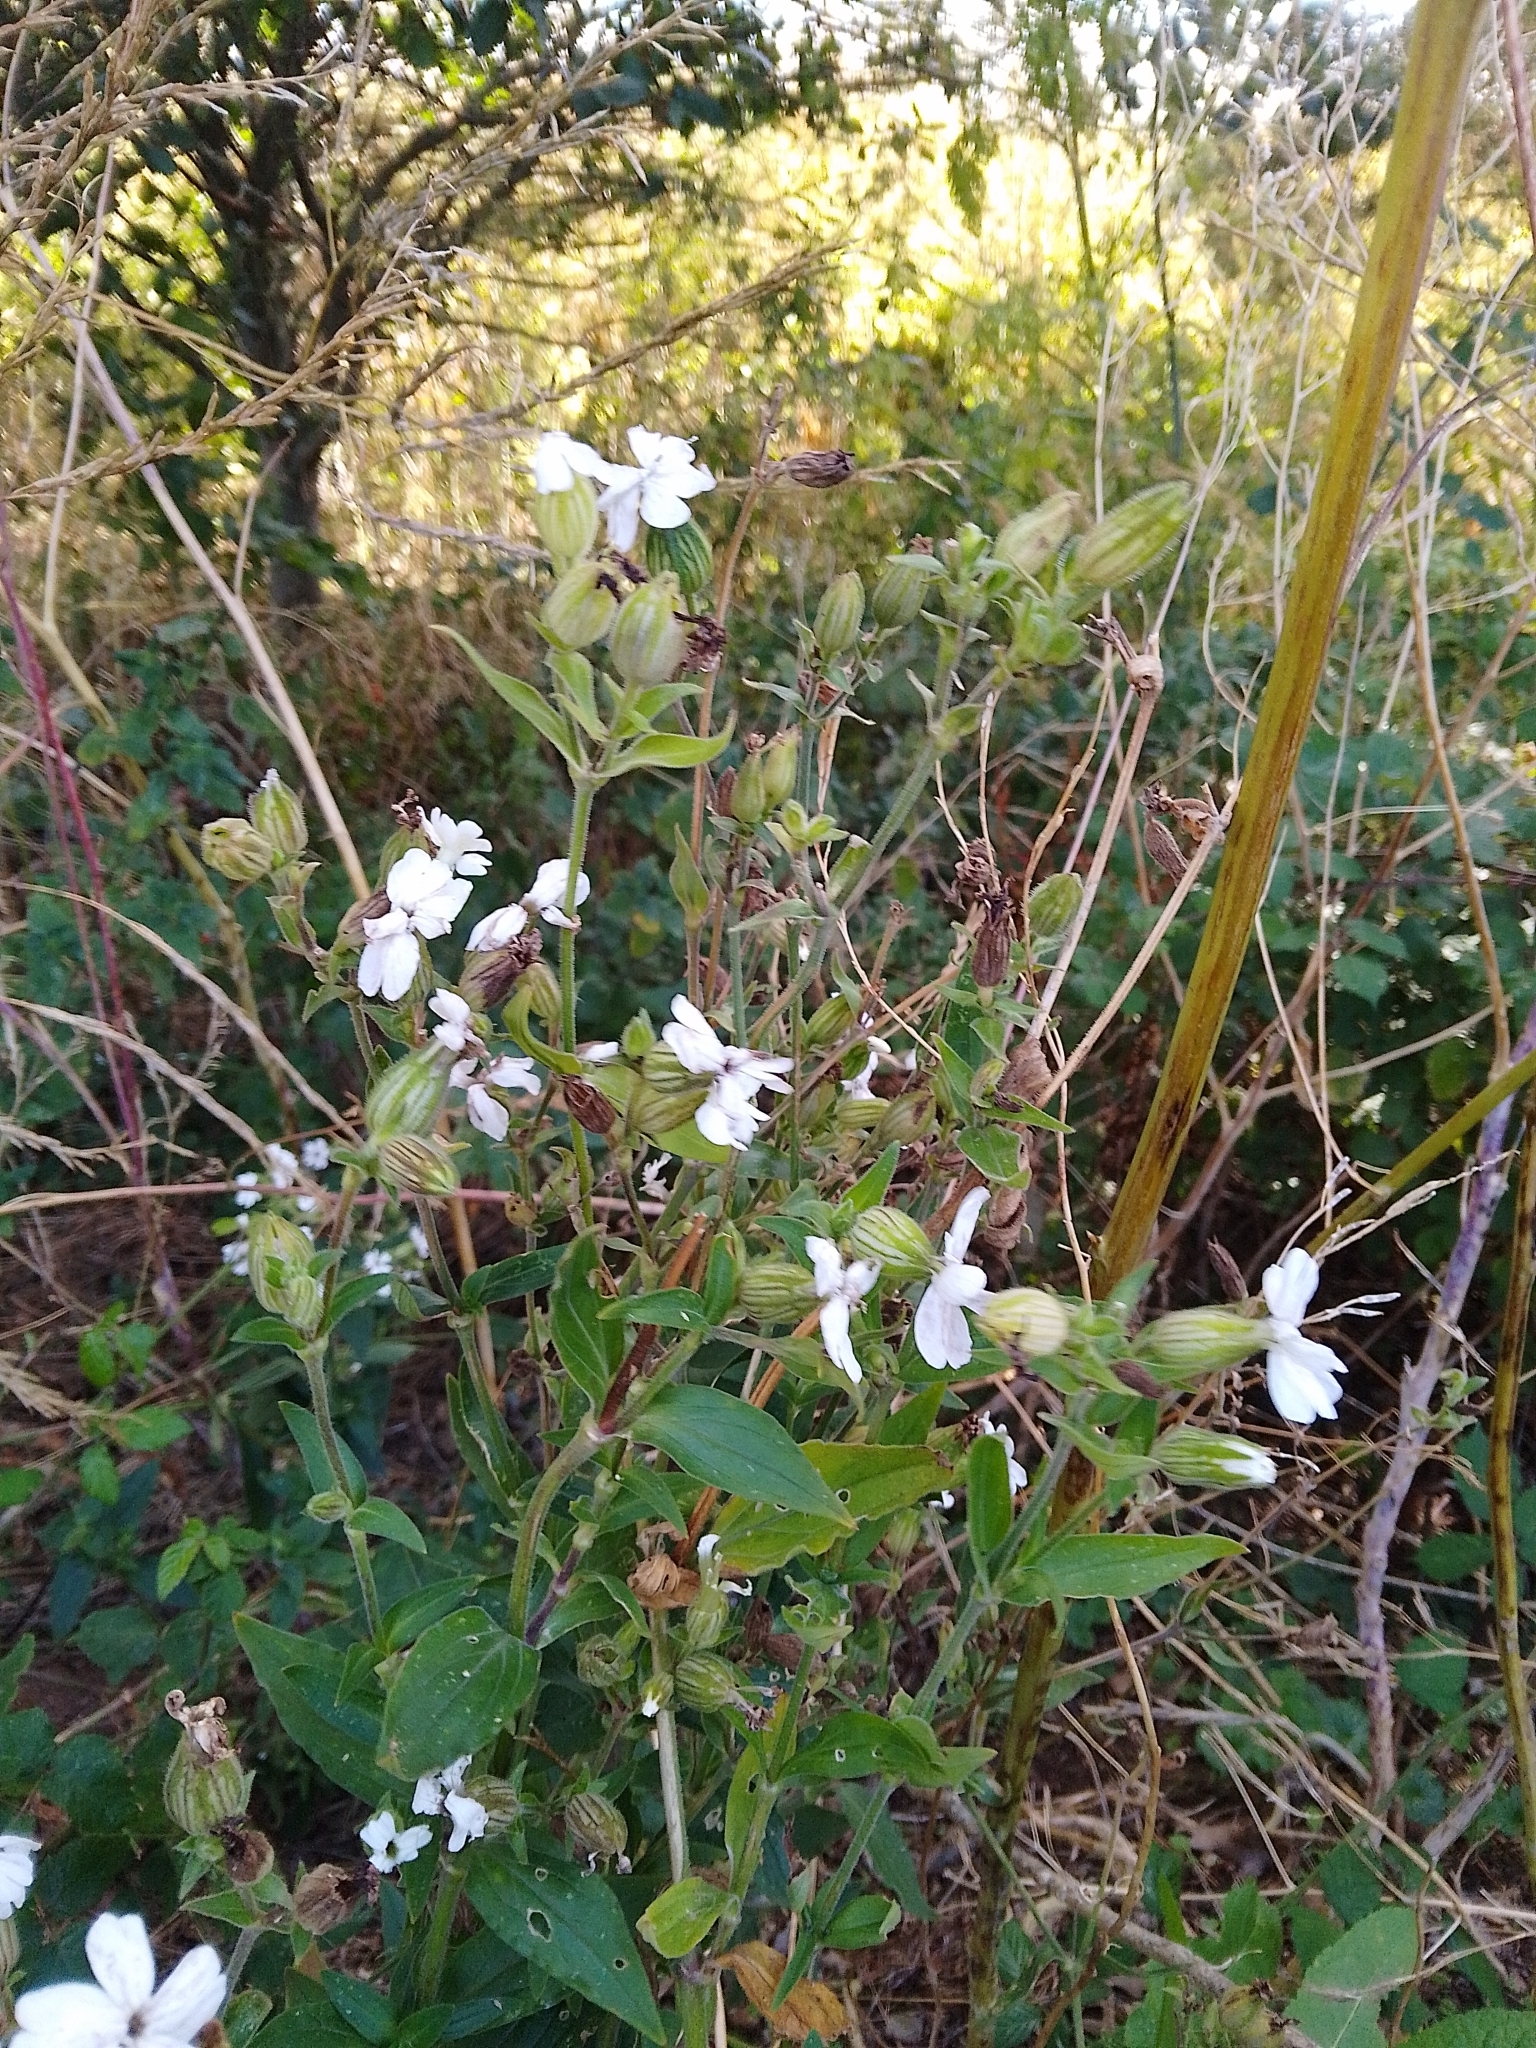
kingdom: Plantae
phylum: Tracheophyta
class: Magnoliopsida
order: Caryophyllales
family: Caryophyllaceae
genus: Silene
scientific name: Silene latifolia
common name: White campion
